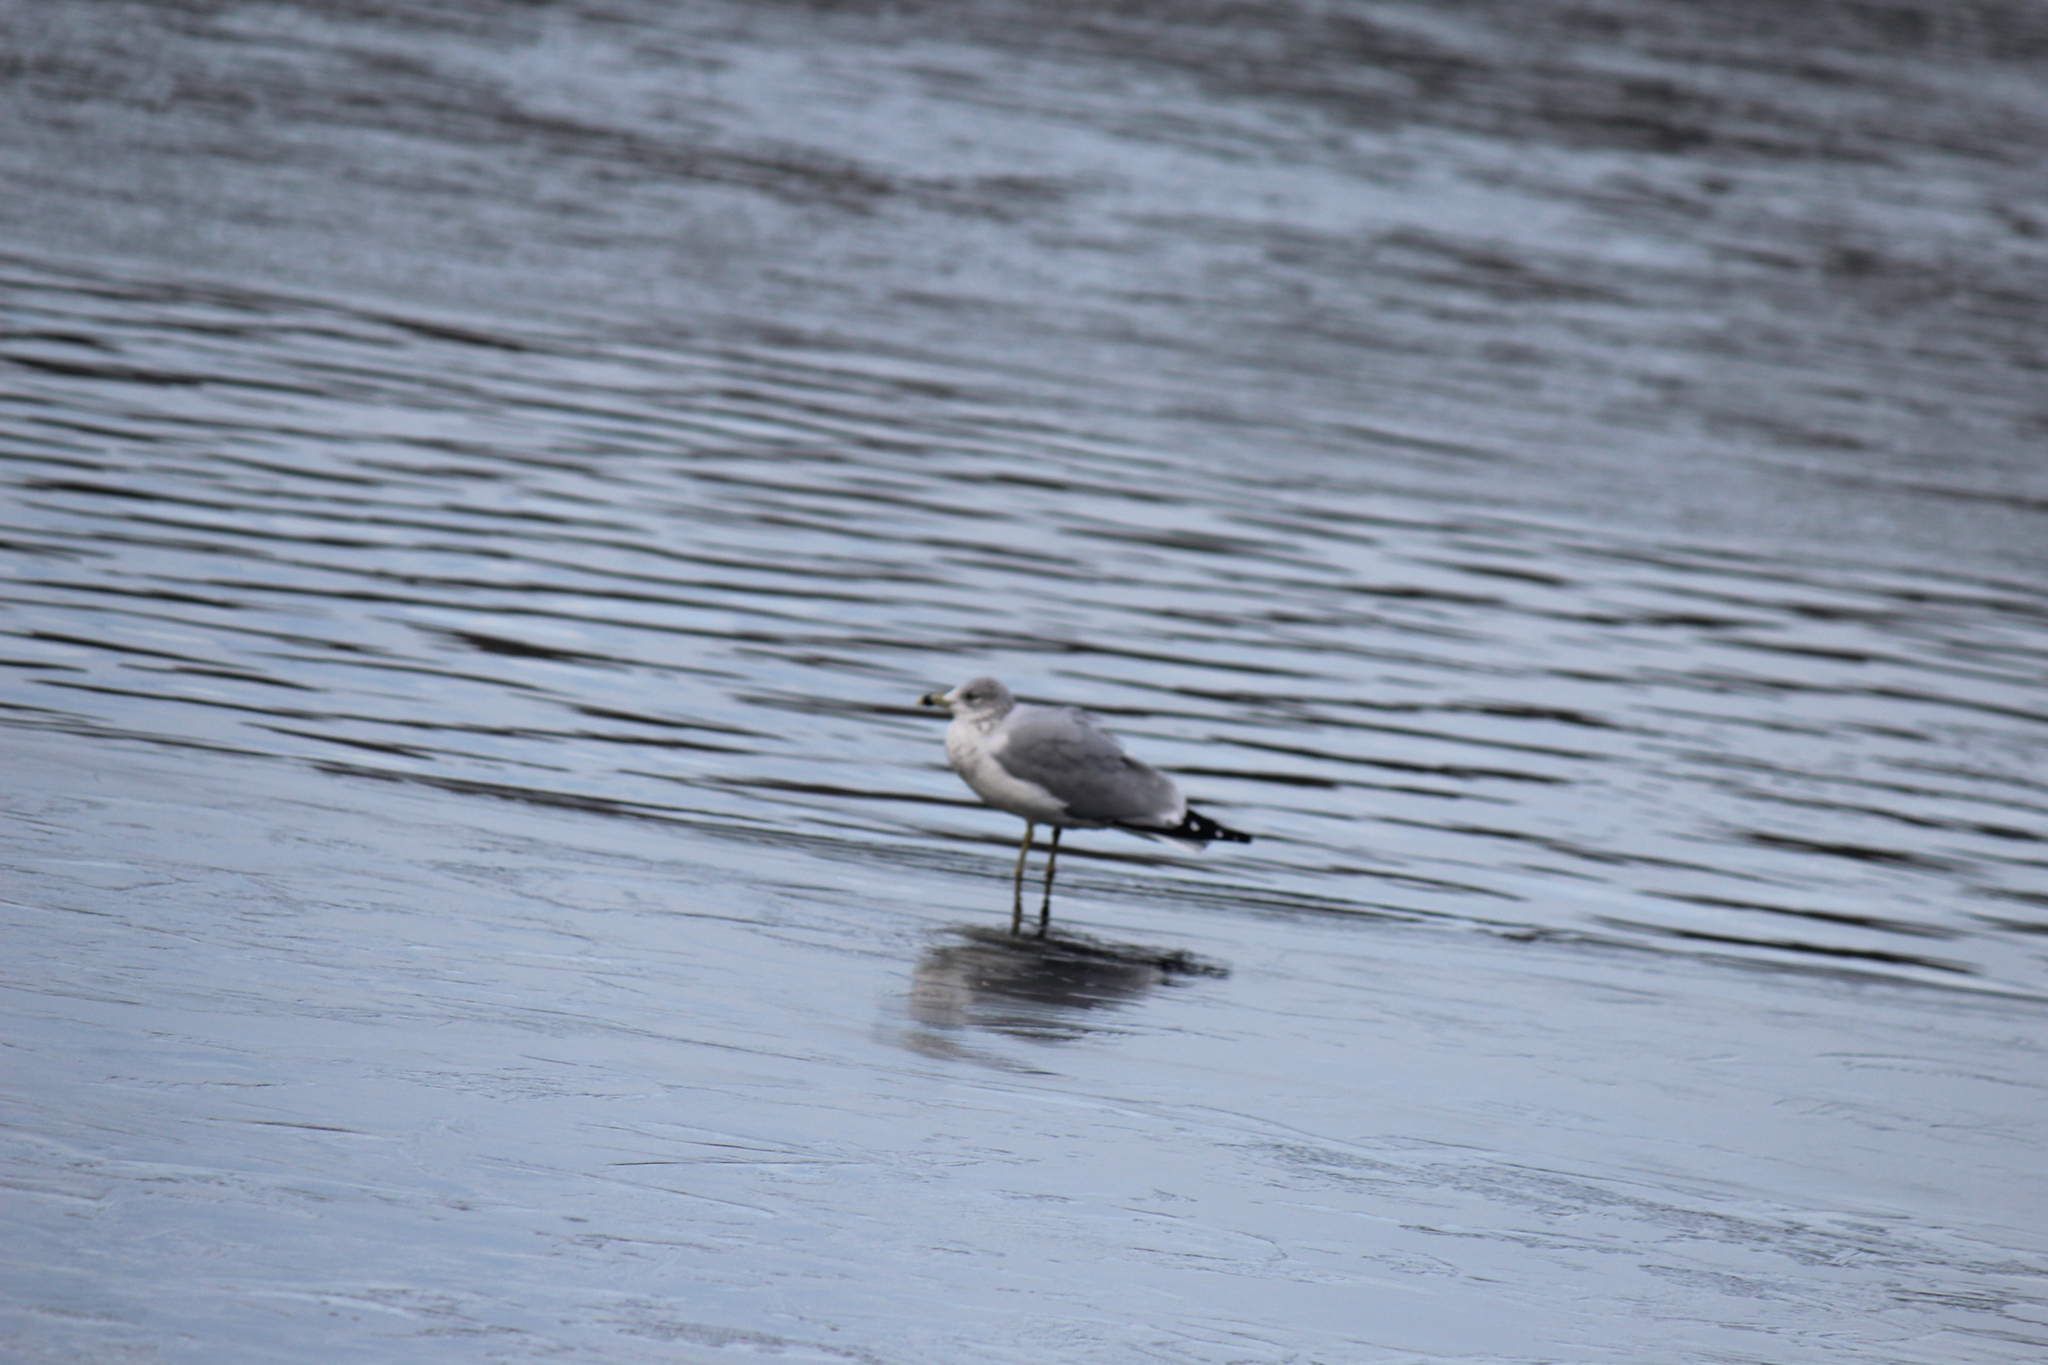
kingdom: Animalia
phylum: Chordata
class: Aves
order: Charadriiformes
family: Laridae
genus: Larus
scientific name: Larus delawarensis
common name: Ring-billed gull
